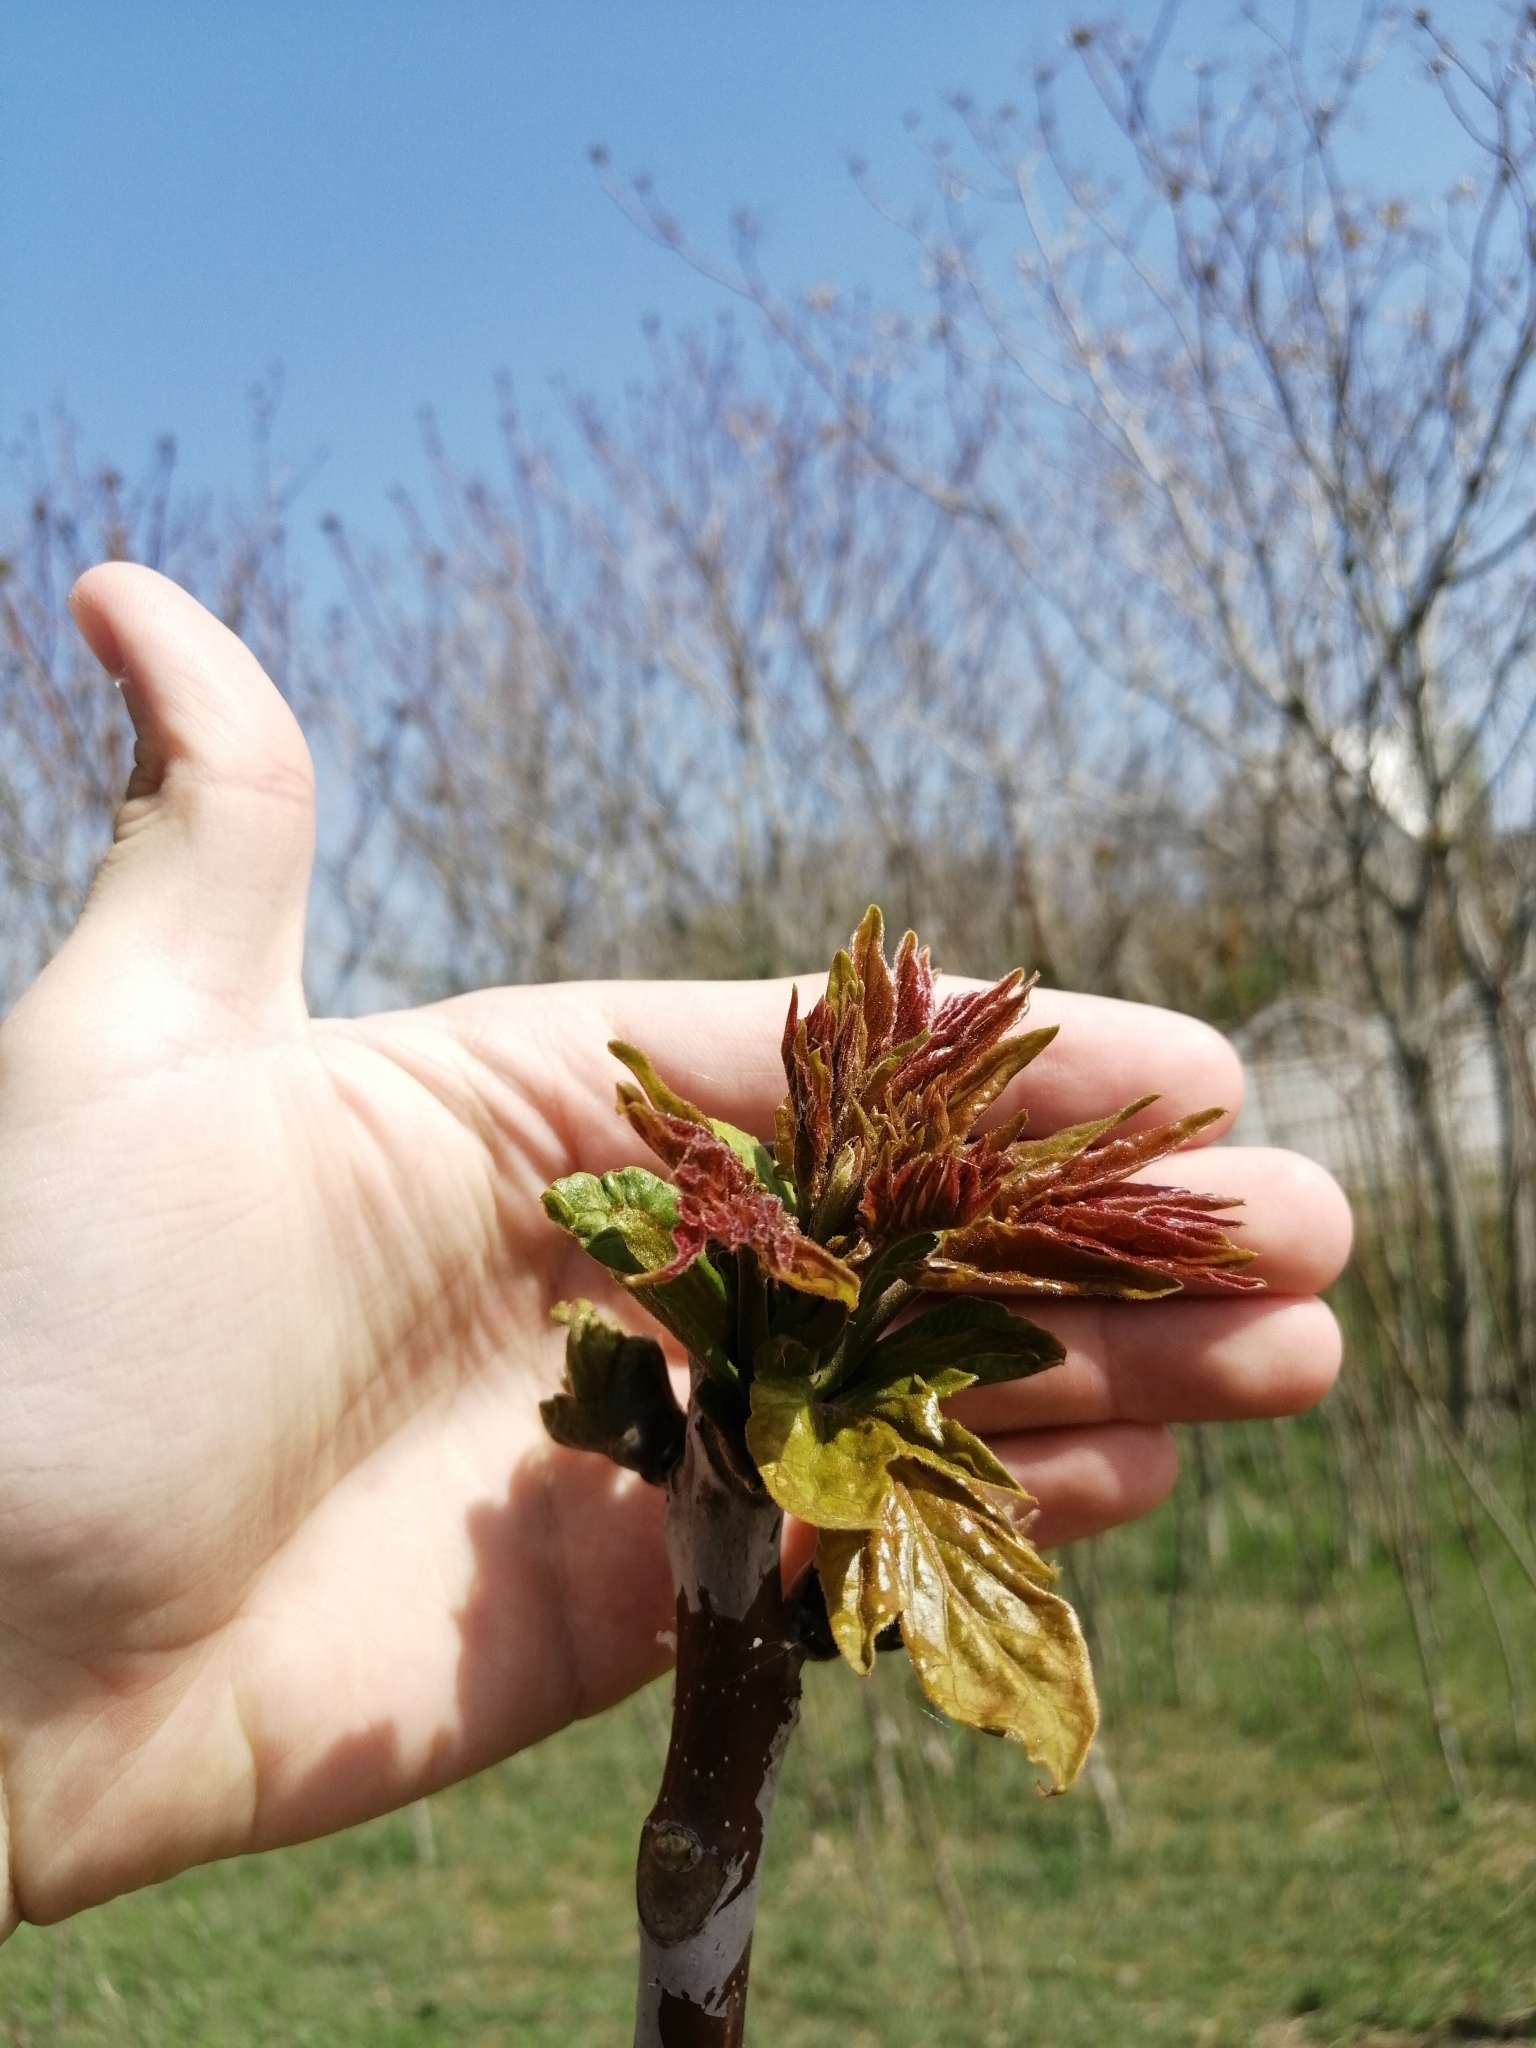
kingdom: Plantae
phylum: Tracheophyta
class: Magnoliopsida
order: Sapindales
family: Simaroubaceae
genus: Ailanthus
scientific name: Ailanthus altissima
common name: Tree-of-heaven
